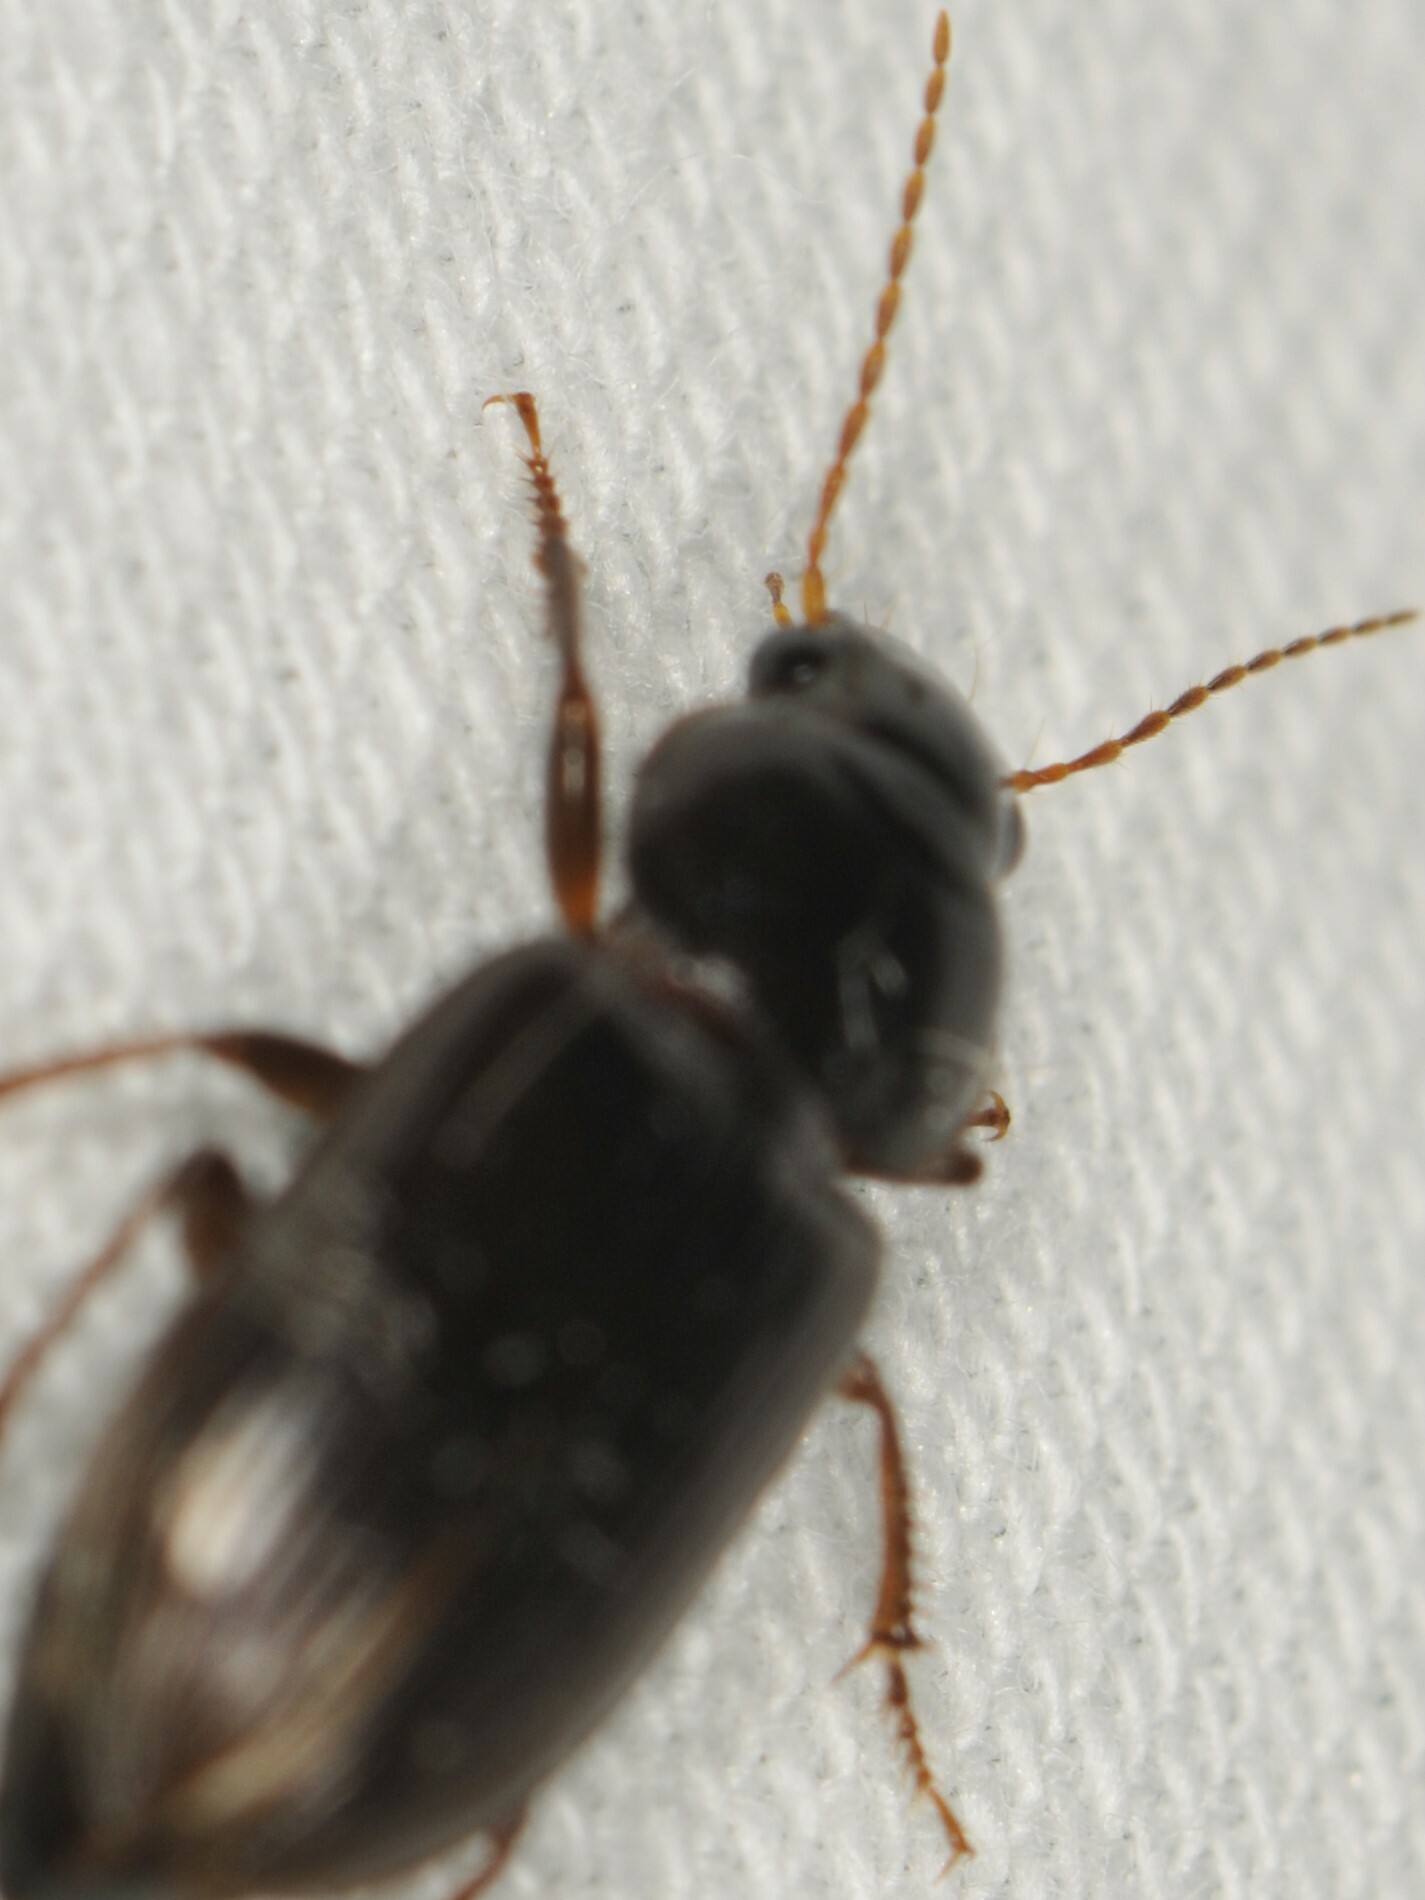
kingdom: Animalia
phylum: Arthropoda
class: Insecta
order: Coleoptera
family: Carabidae
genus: Discoderus
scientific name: Discoderus
